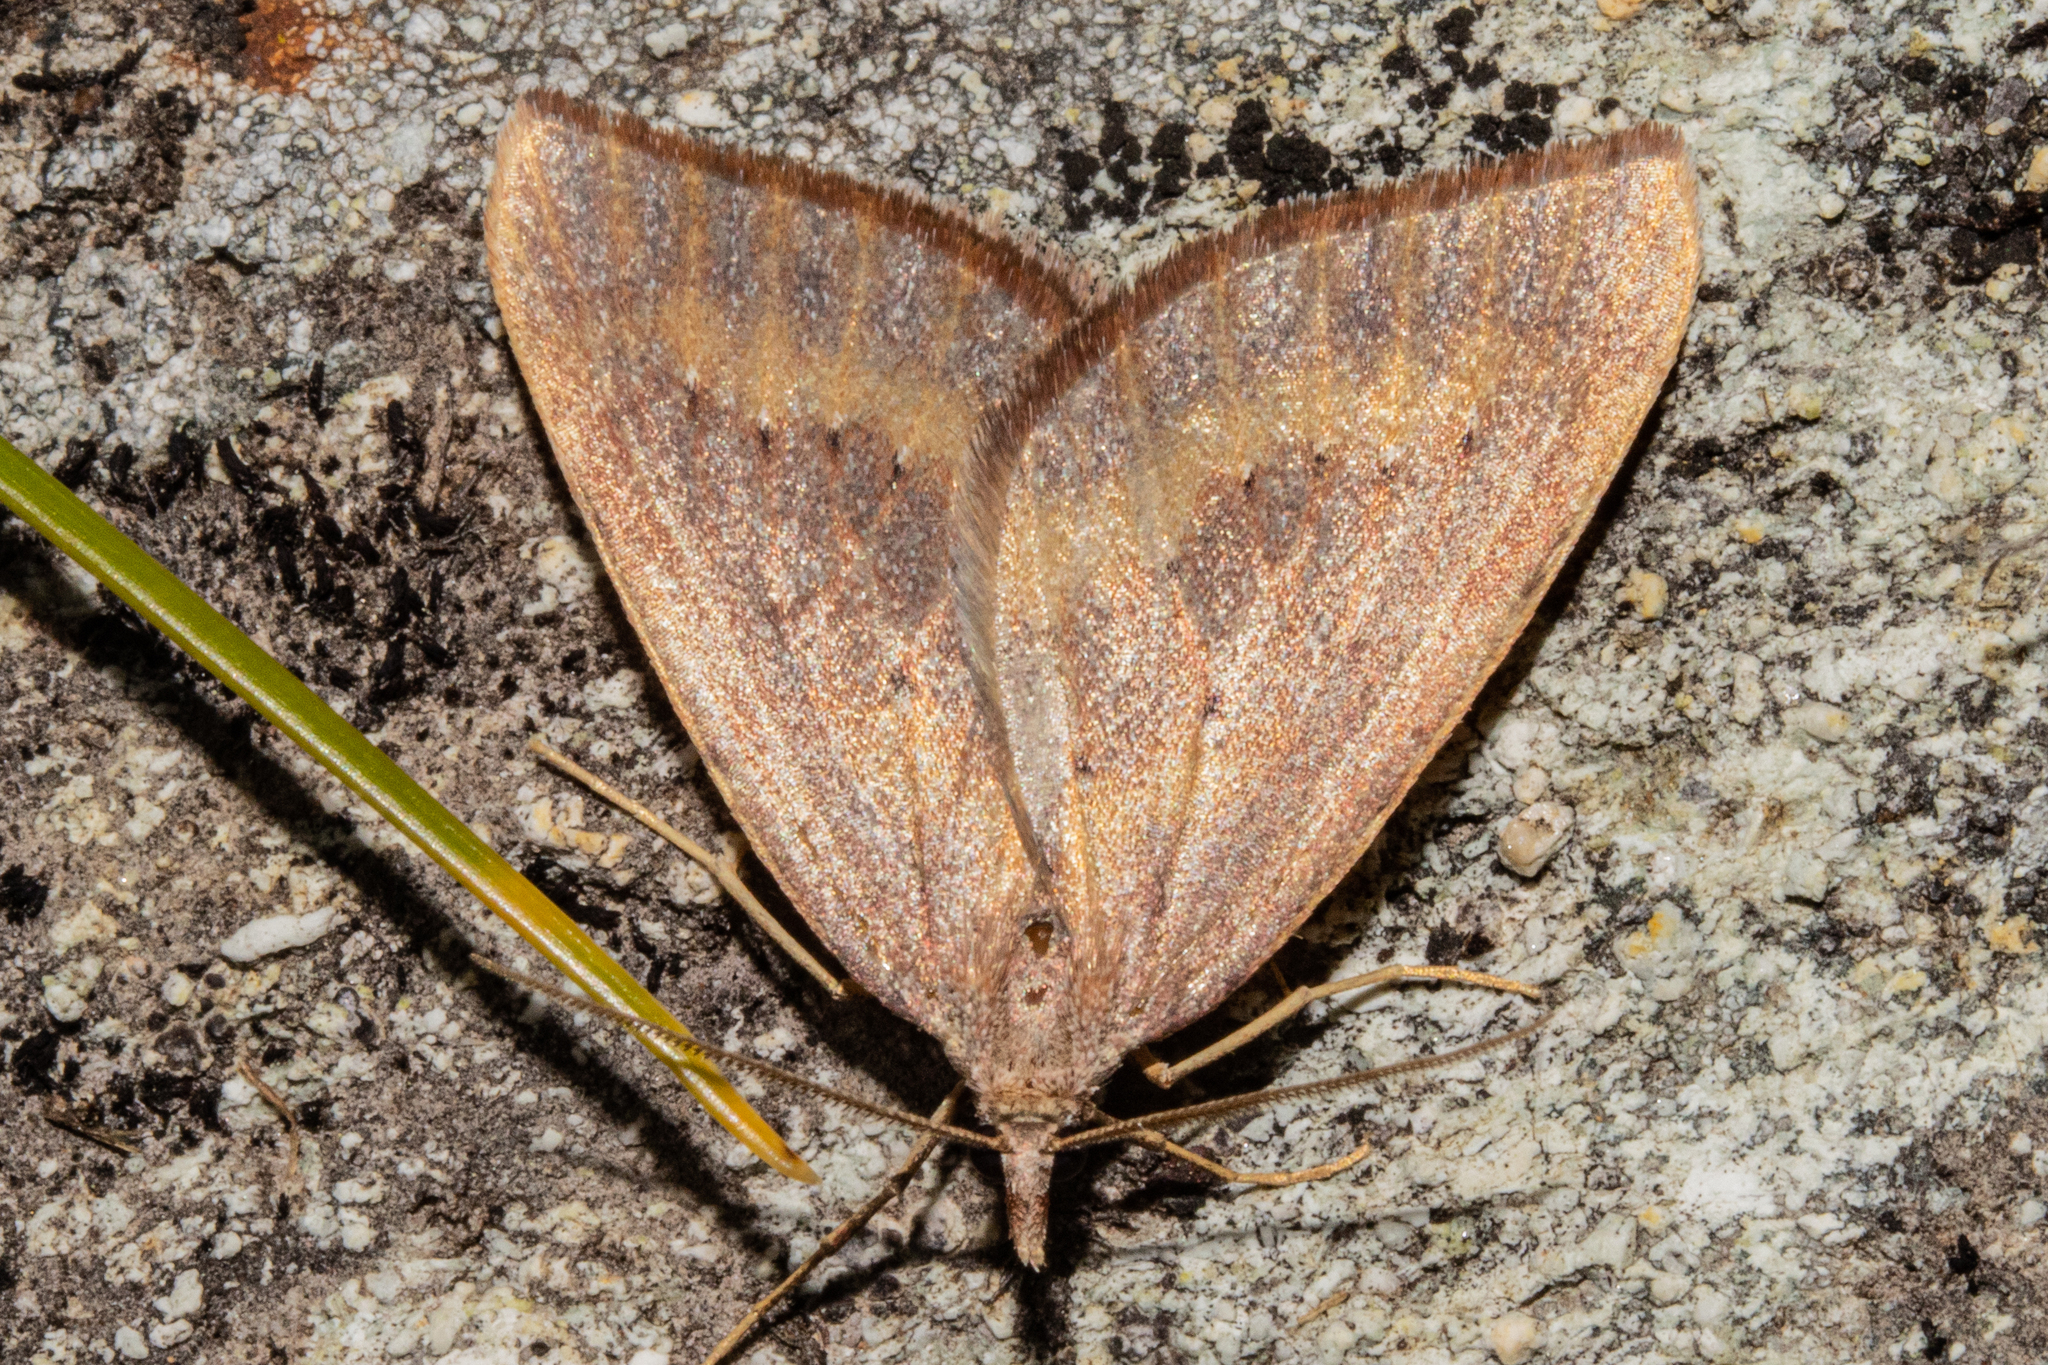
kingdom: Animalia
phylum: Arthropoda
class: Insecta
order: Lepidoptera
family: Geometridae
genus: Xanthorhoe
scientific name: Xanthorhoe occulta
